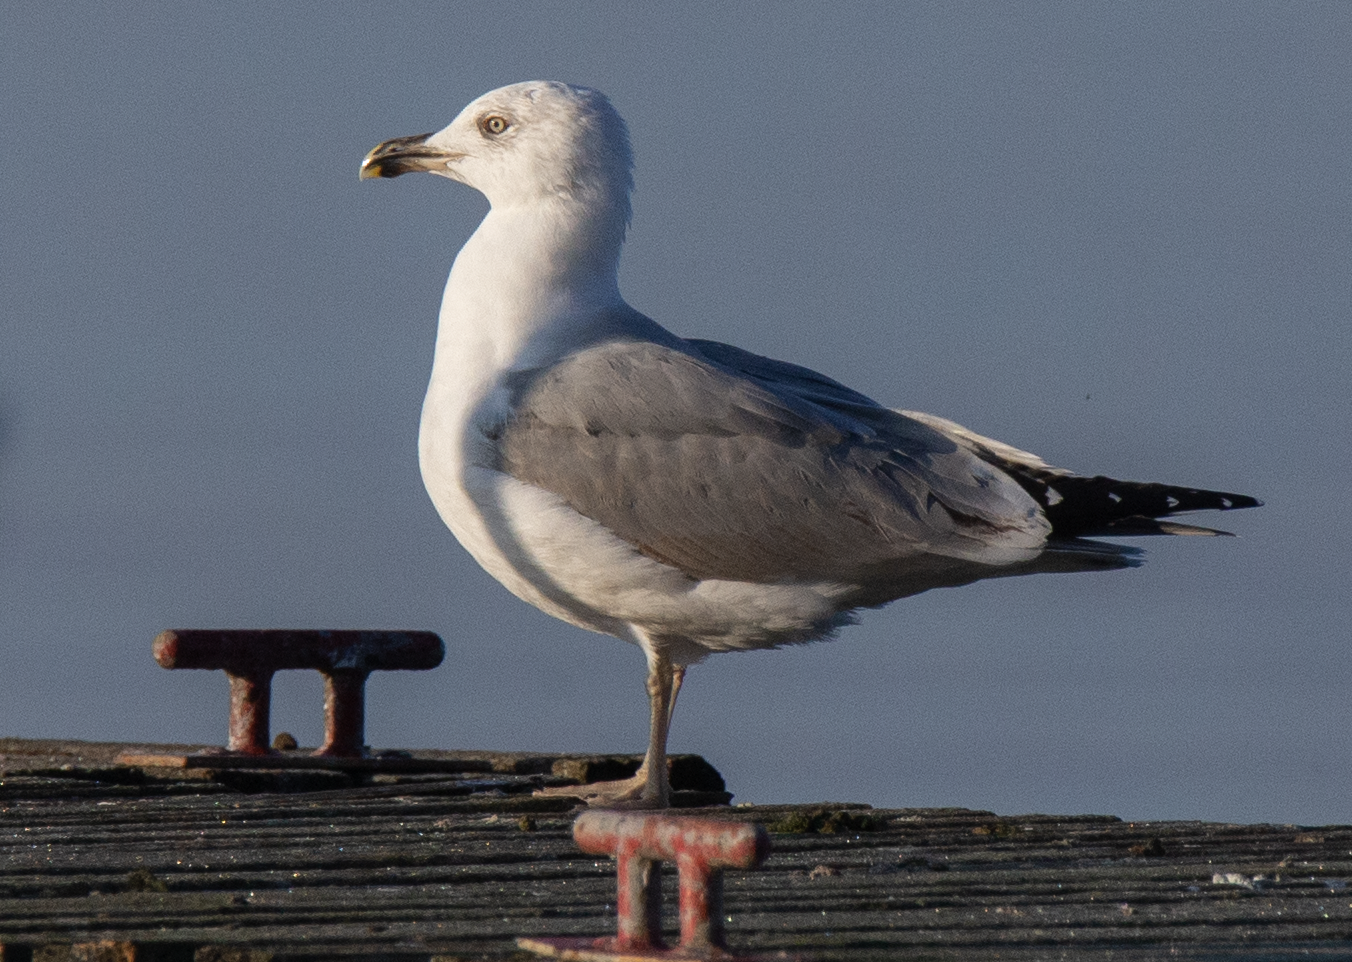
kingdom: Animalia
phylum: Chordata
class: Aves
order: Charadriiformes
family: Laridae
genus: Larus
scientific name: Larus michahellis
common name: Yellow-legged gull
